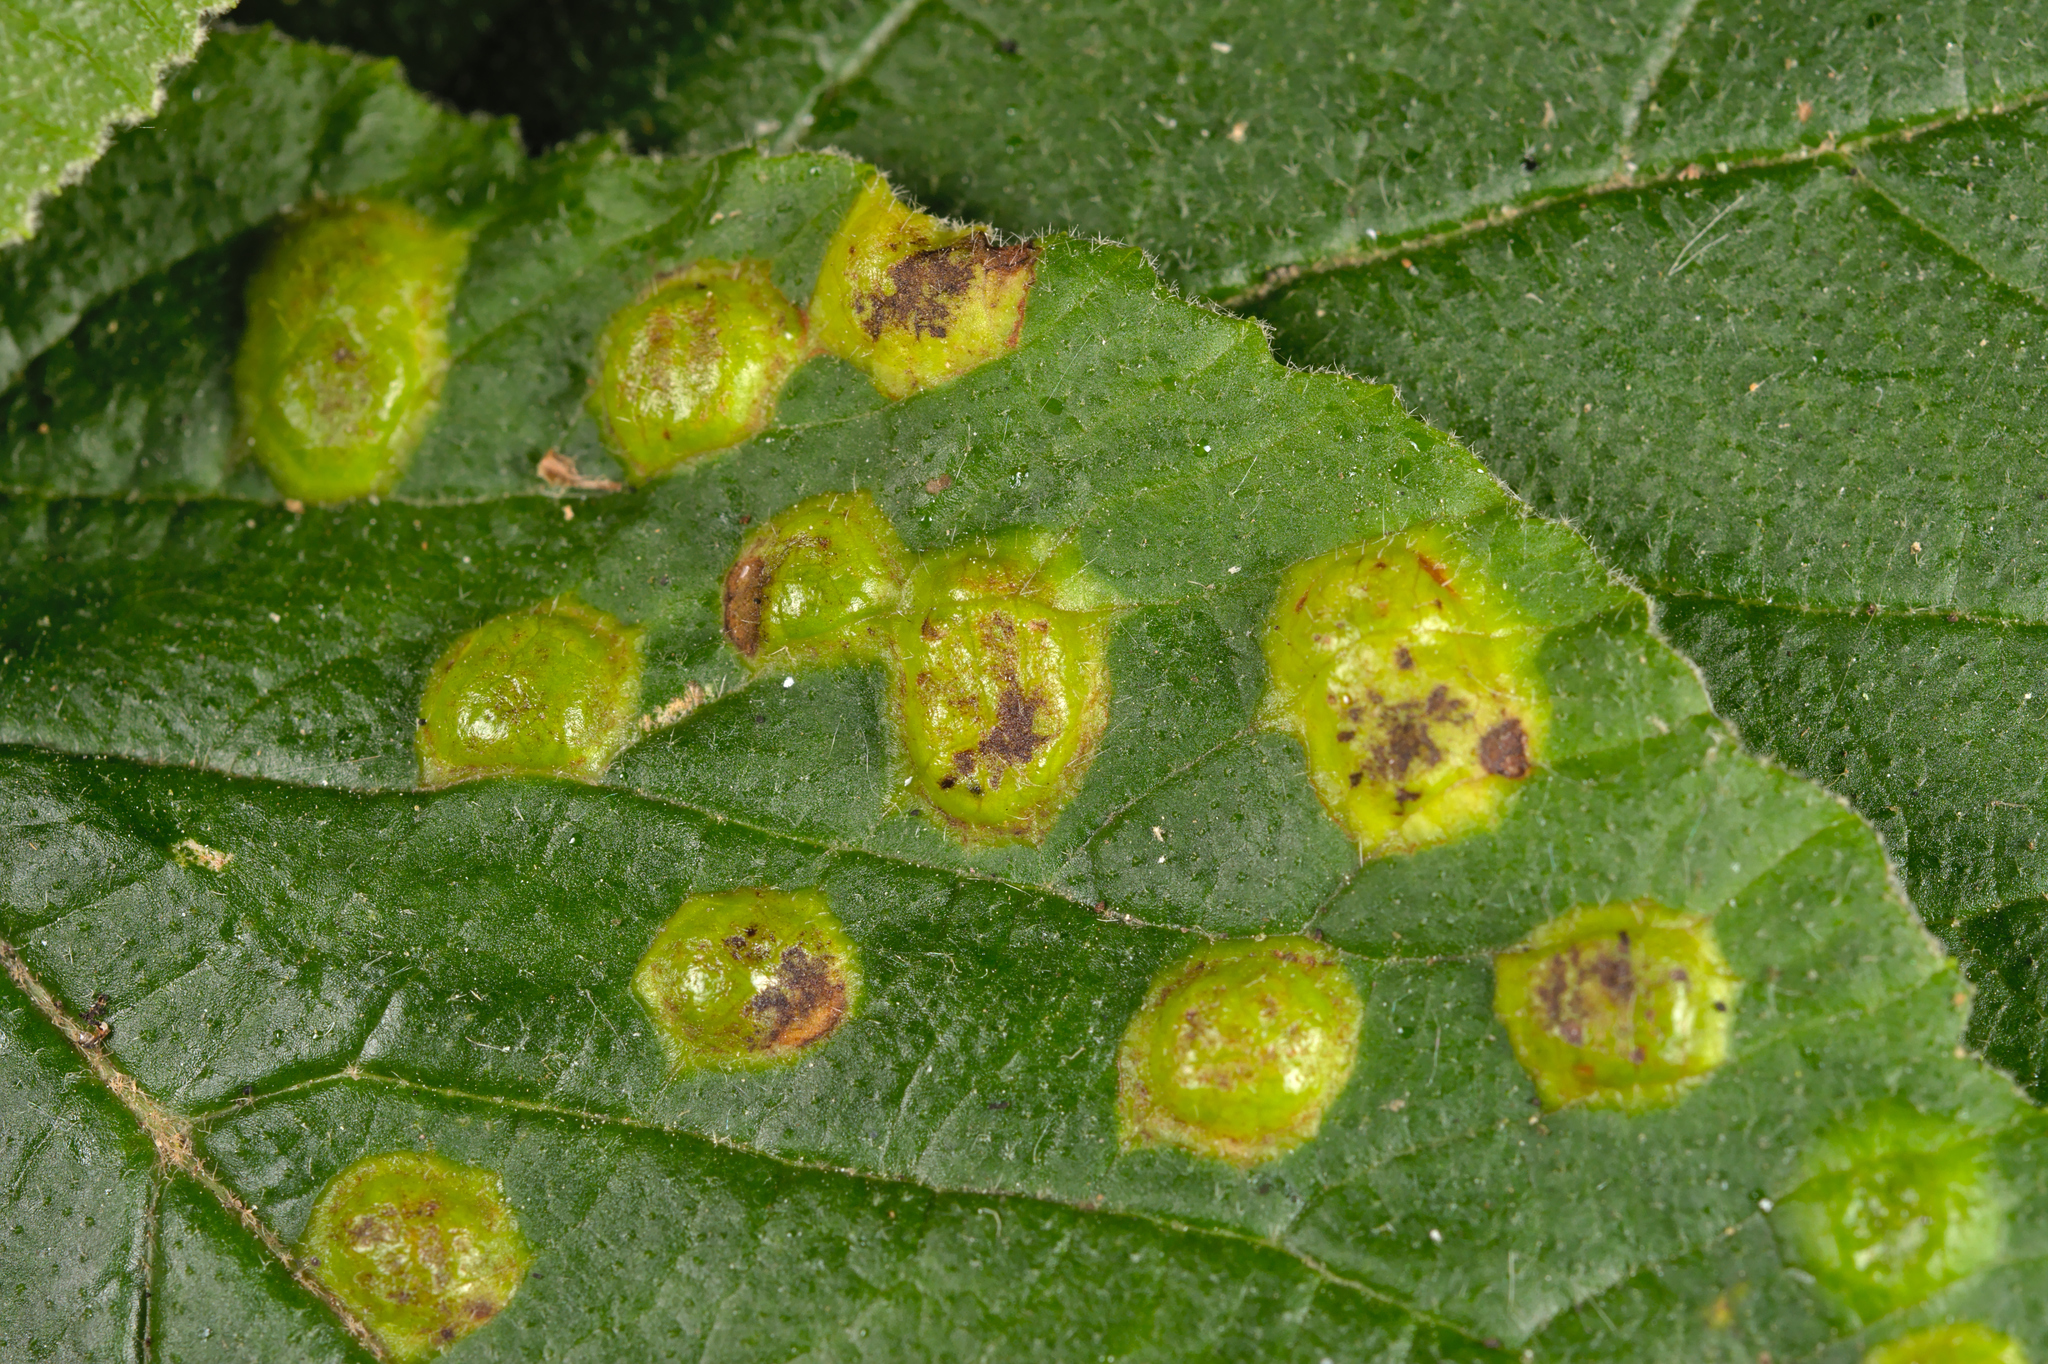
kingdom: Animalia
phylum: Arthropoda
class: Insecta
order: Diptera
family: Cecidomyiidae
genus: Sackenomyia
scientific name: Sackenomyia reaumurii
